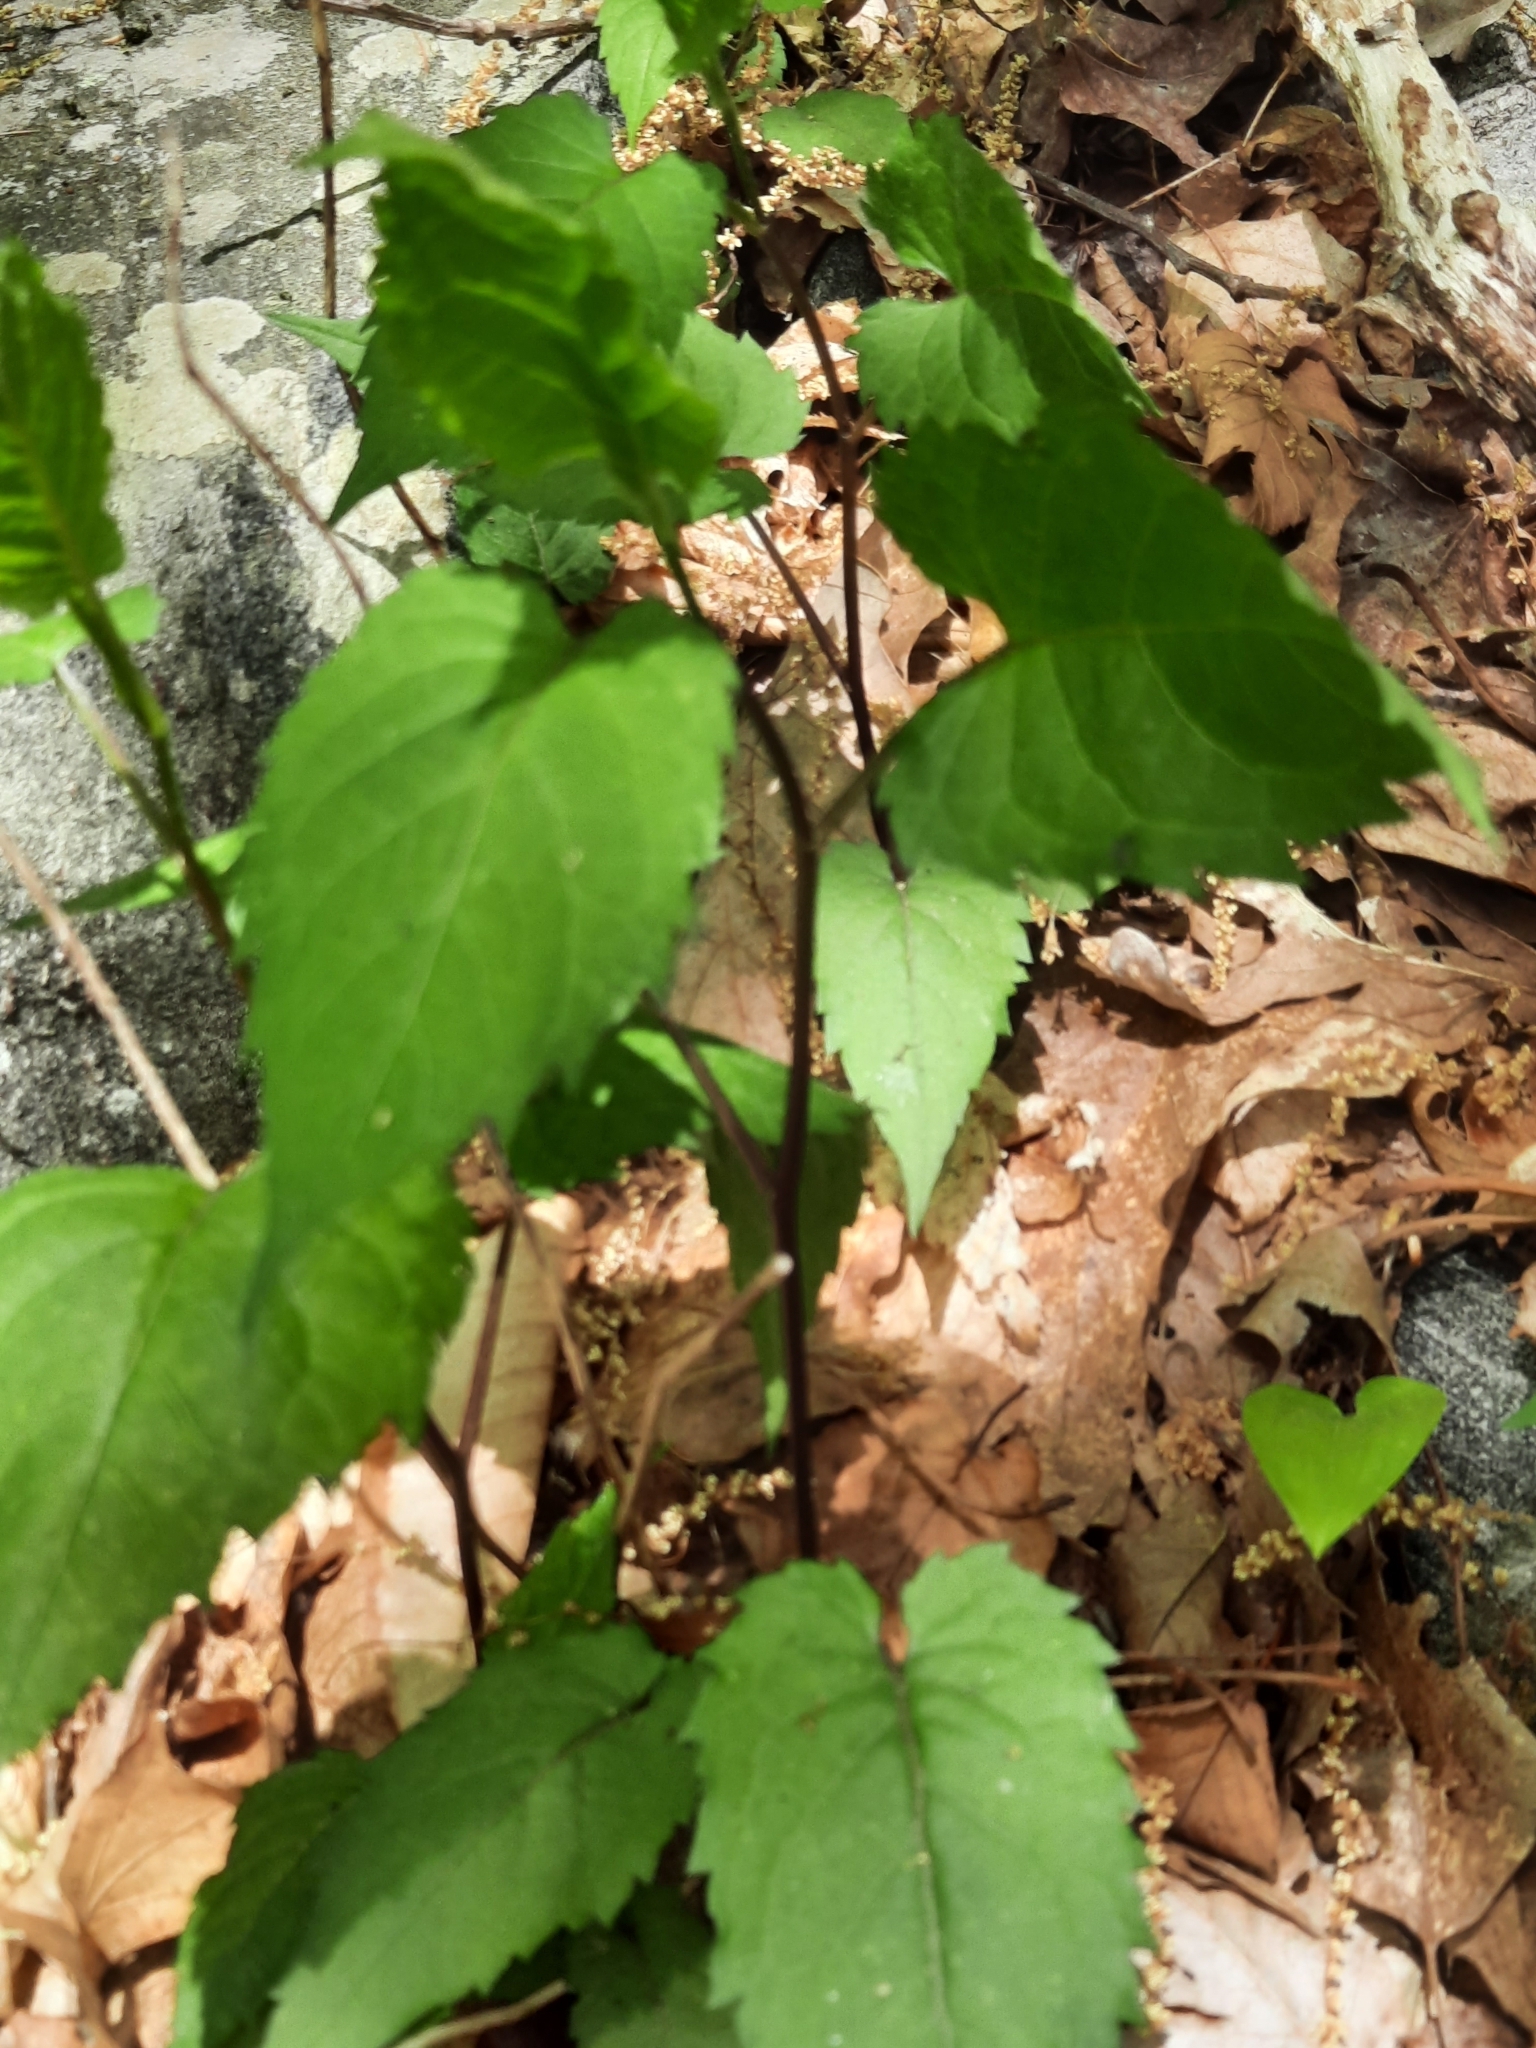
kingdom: Plantae
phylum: Tracheophyta
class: Magnoliopsida
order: Asterales
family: Asteraceae
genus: Eurybia
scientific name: Eurybia divaricata
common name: White wood aster
